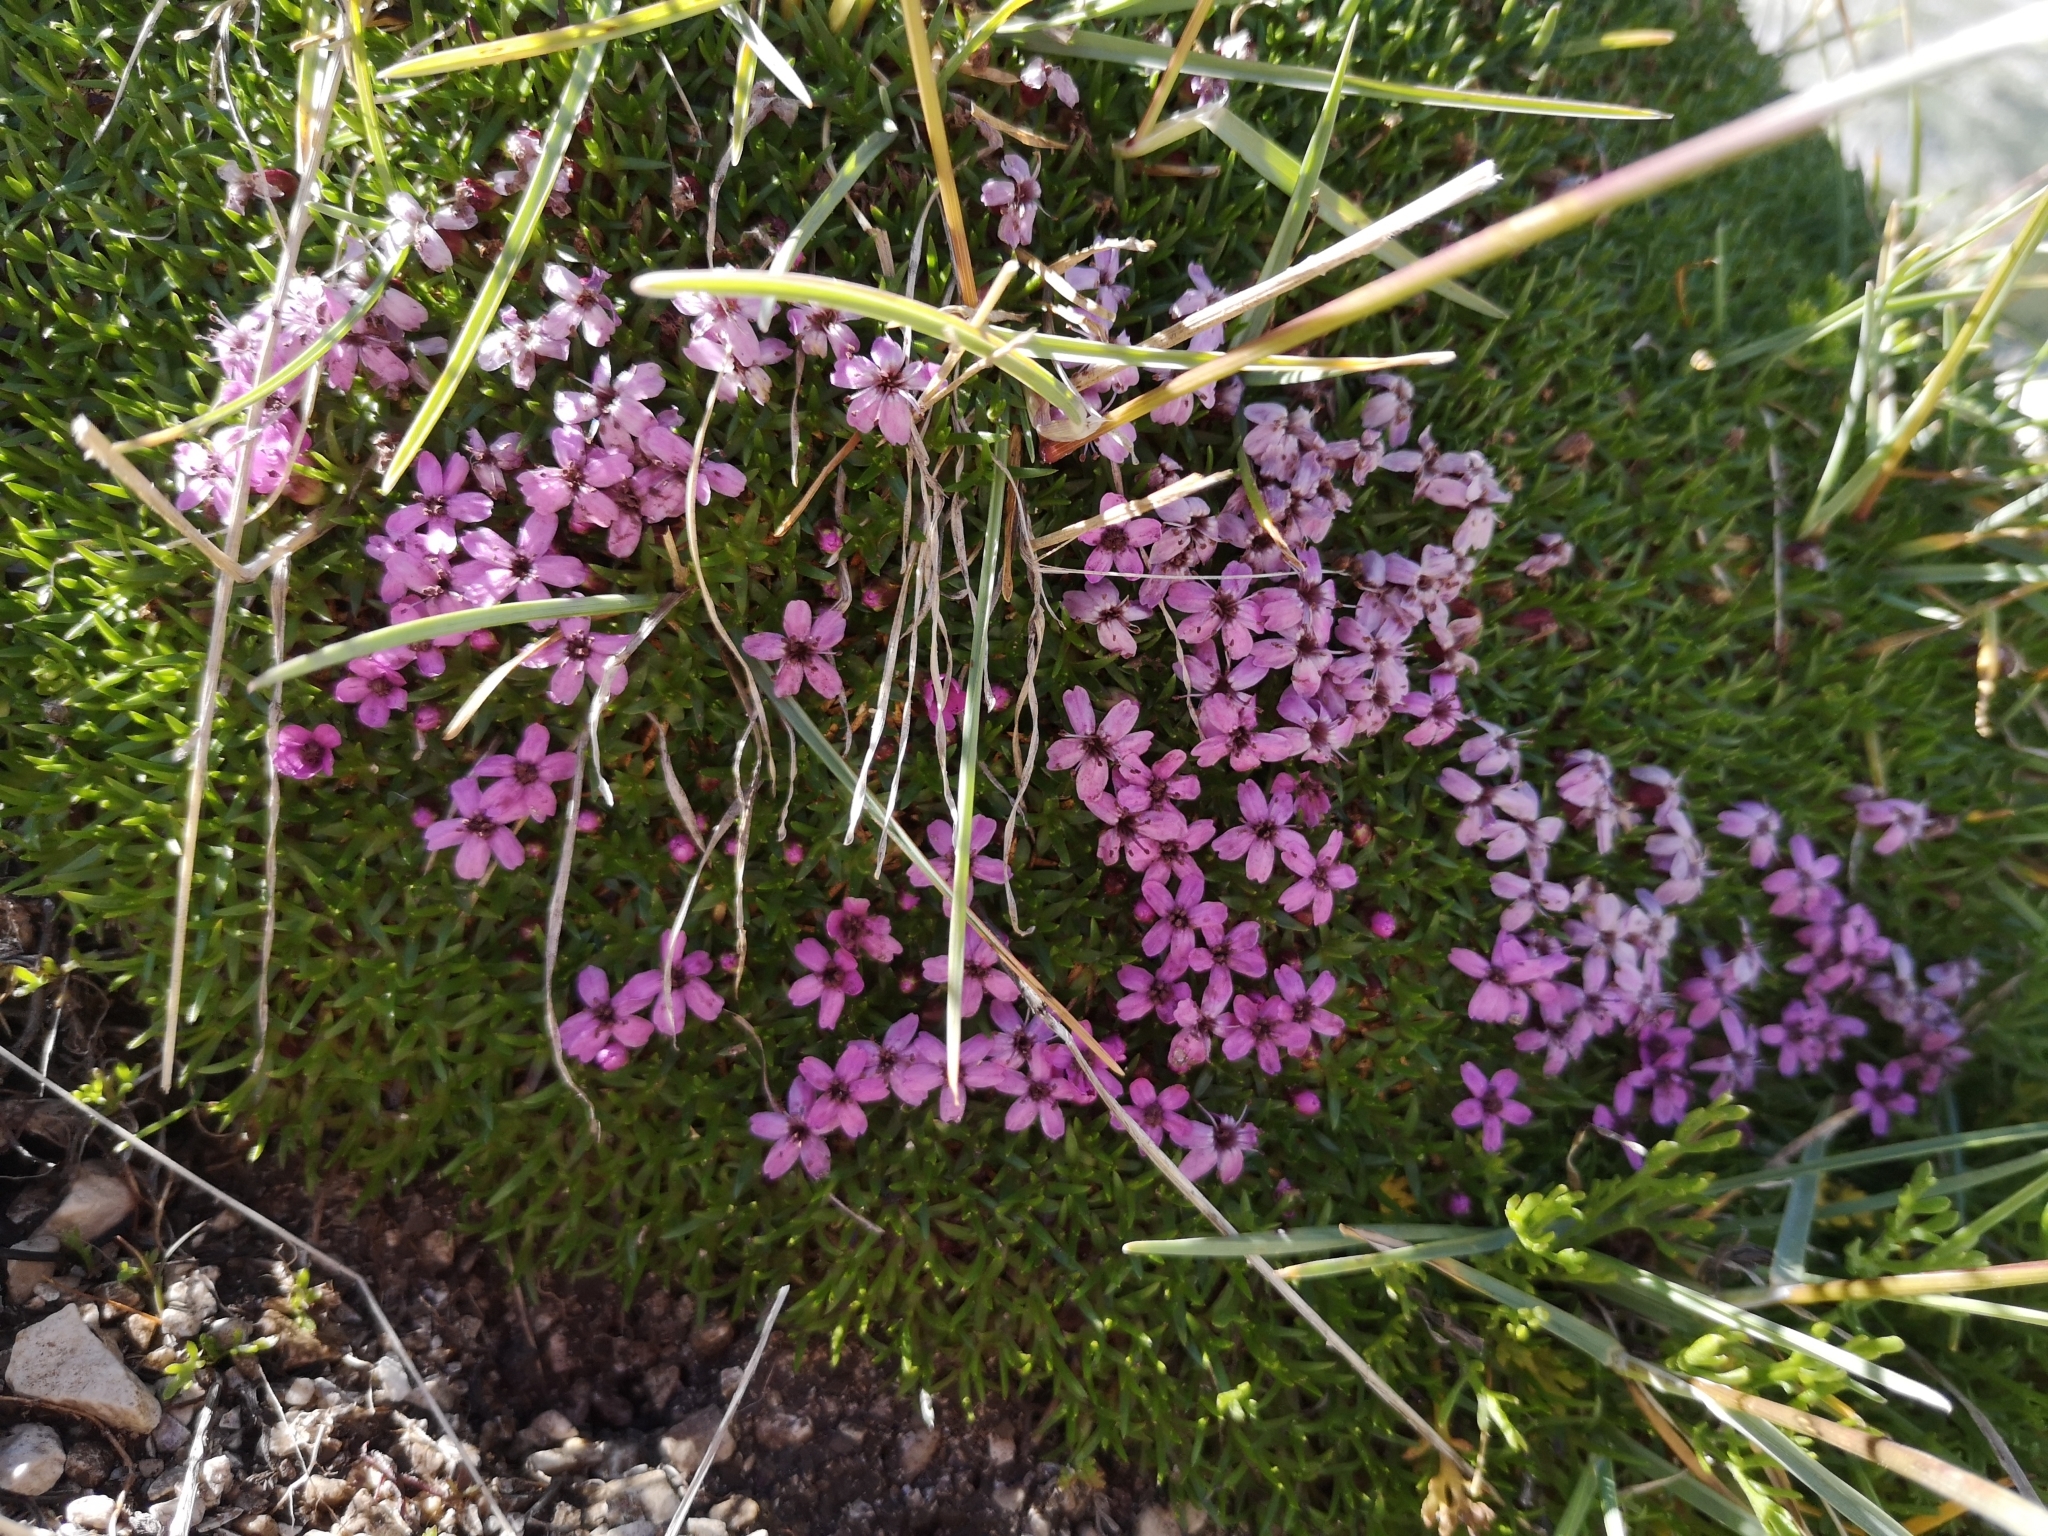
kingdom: Plantae
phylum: Tracheophyta
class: Magnoliopsida
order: Caryophyllales
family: Caryophyllaceae
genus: Silene
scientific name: Silene acaulis
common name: Moss campion
